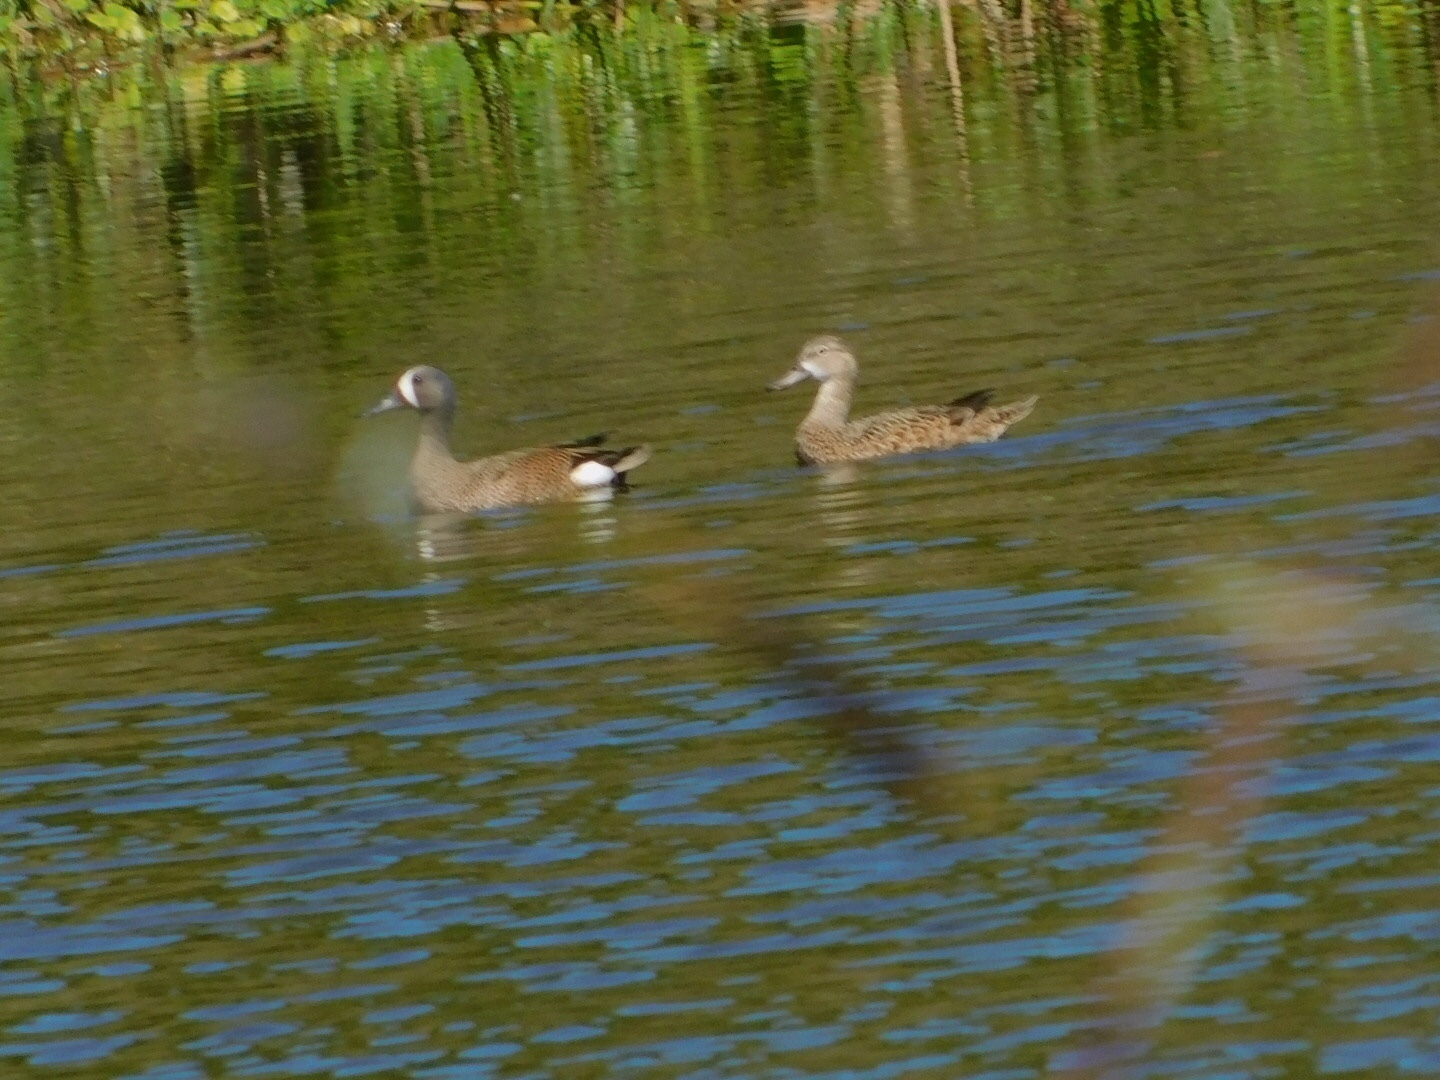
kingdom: Animalia
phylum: Chordata
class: Aves
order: Anseriformes
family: Anatidae
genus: Spatula
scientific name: Spatula discors
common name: Blue-winged teal
